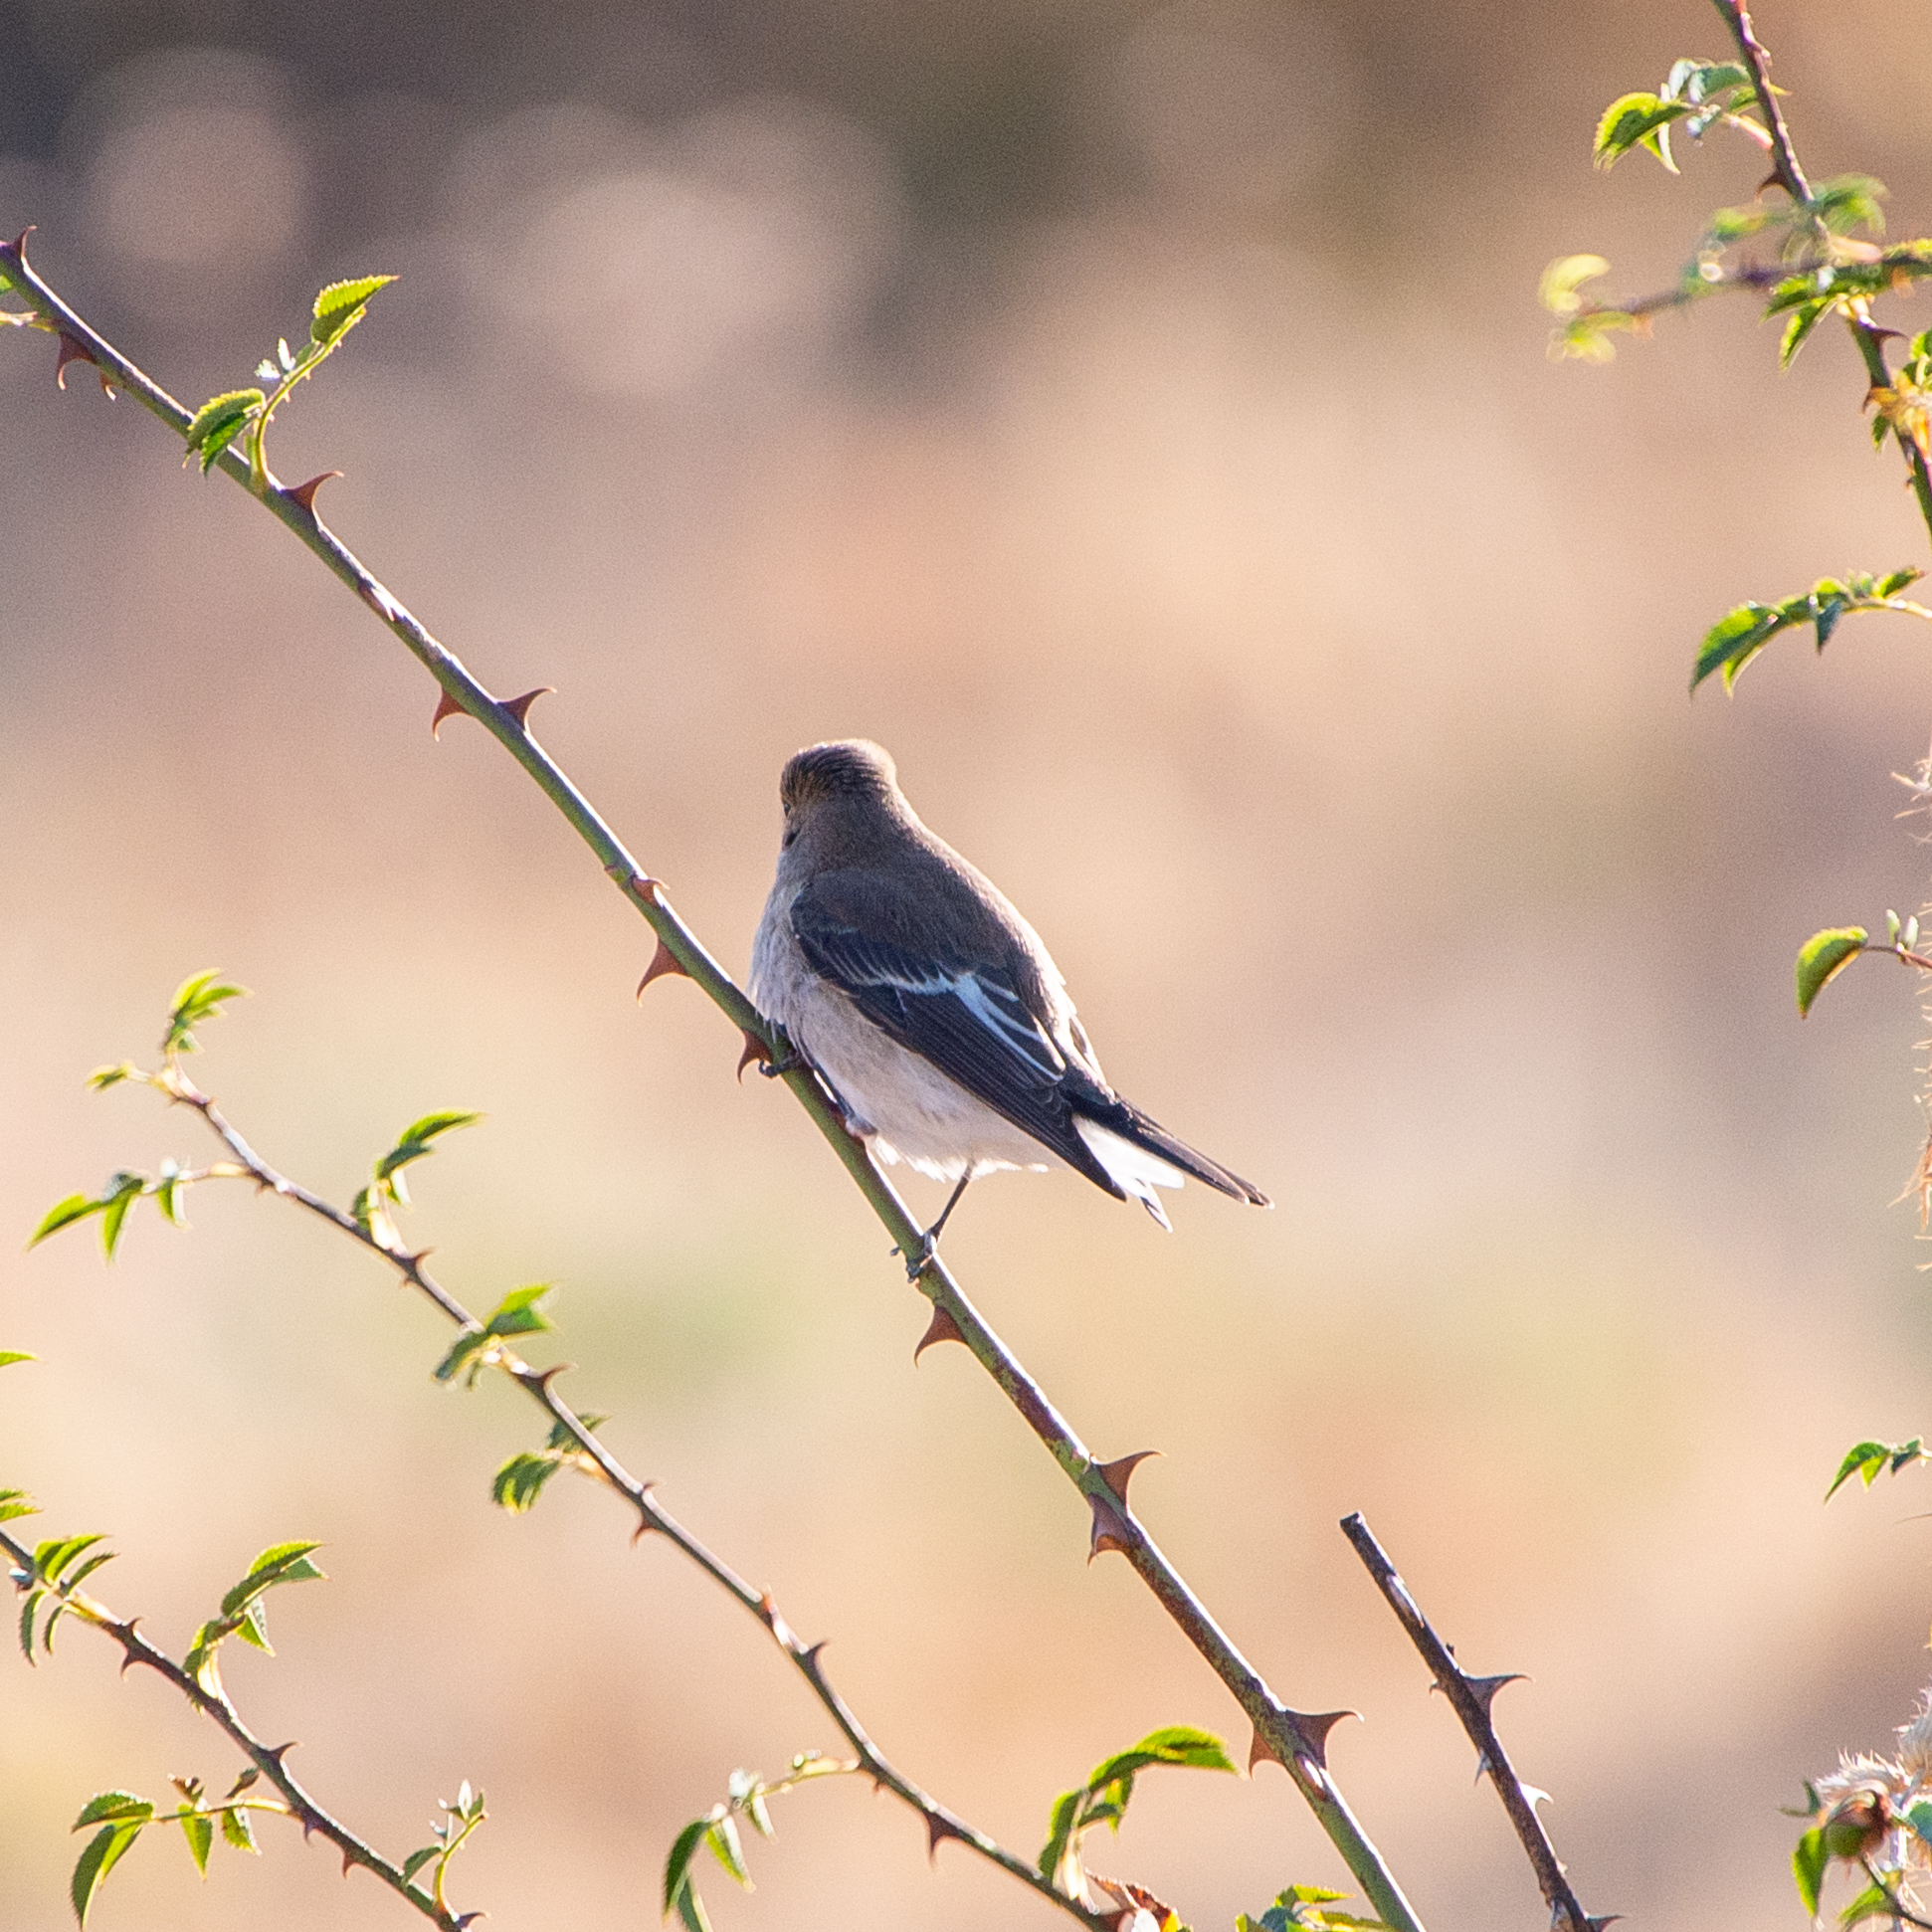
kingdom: Animalia
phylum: Chordata
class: Aves
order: Passeriformes
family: Muscicapidae
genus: Ficedula
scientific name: Ficedula hypoleuca
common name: European pied flycatcher
